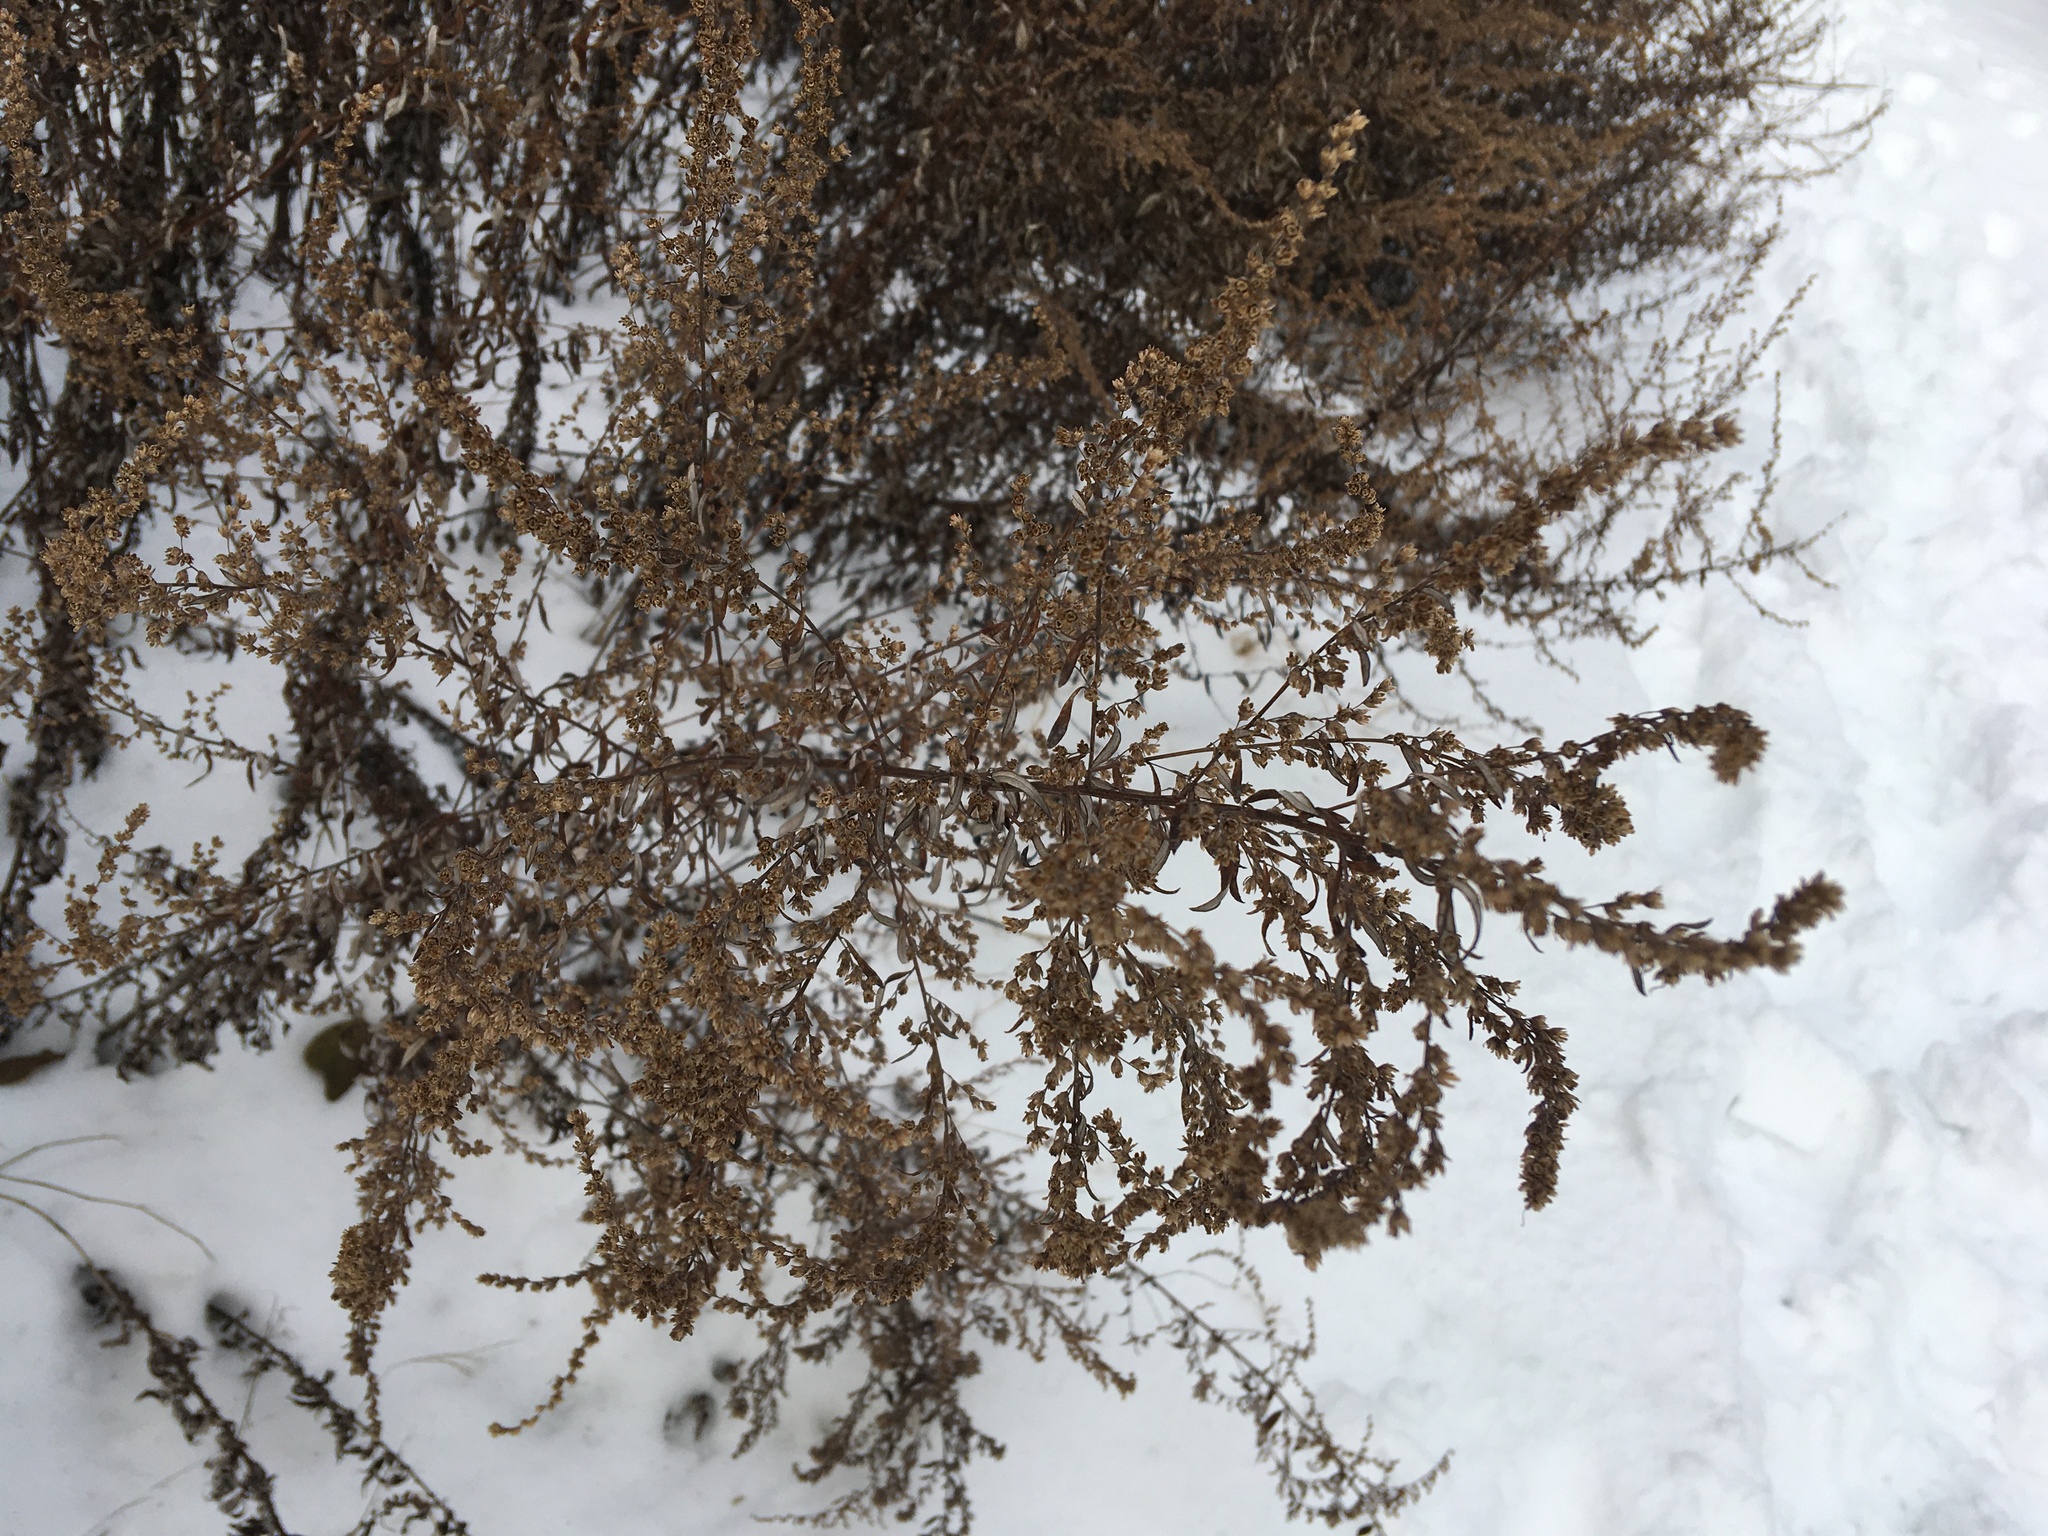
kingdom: Plantae
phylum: Tracheophyta
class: Magnoliopsida
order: Asterales
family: Asteraceae
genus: Artemisia
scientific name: Artemisia vulgaris
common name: Mugwort
